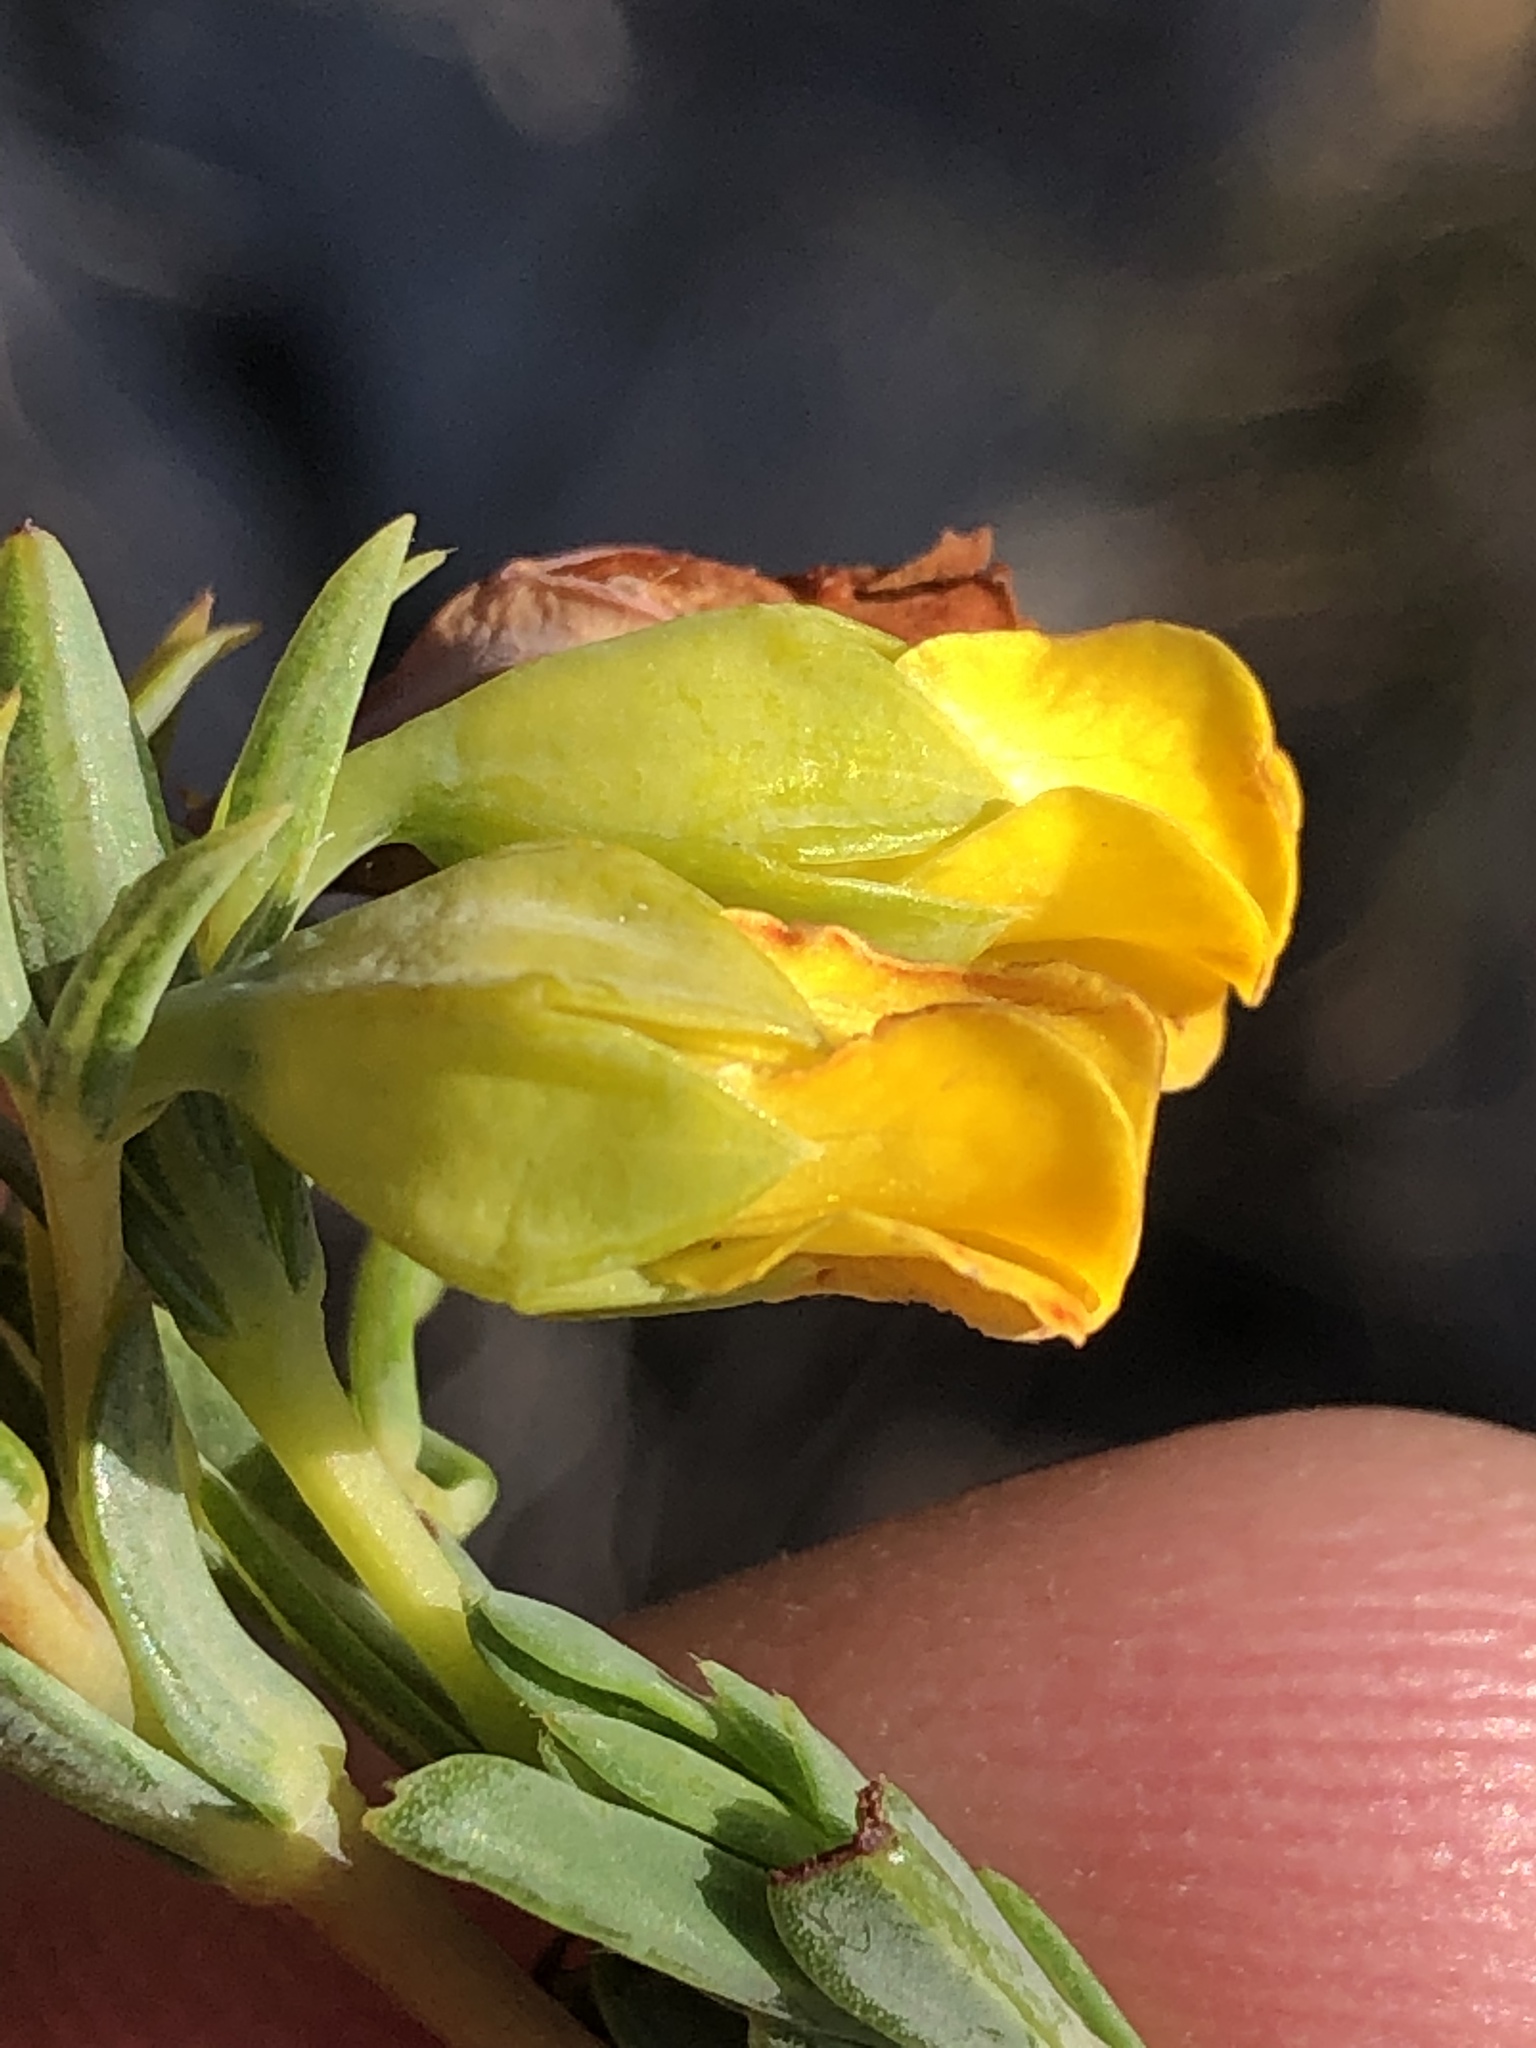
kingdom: Plantae
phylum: Tracheophyta
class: Magnoliopsida
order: Malvales
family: Malvaceae
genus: Hermannia
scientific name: Hermannia
